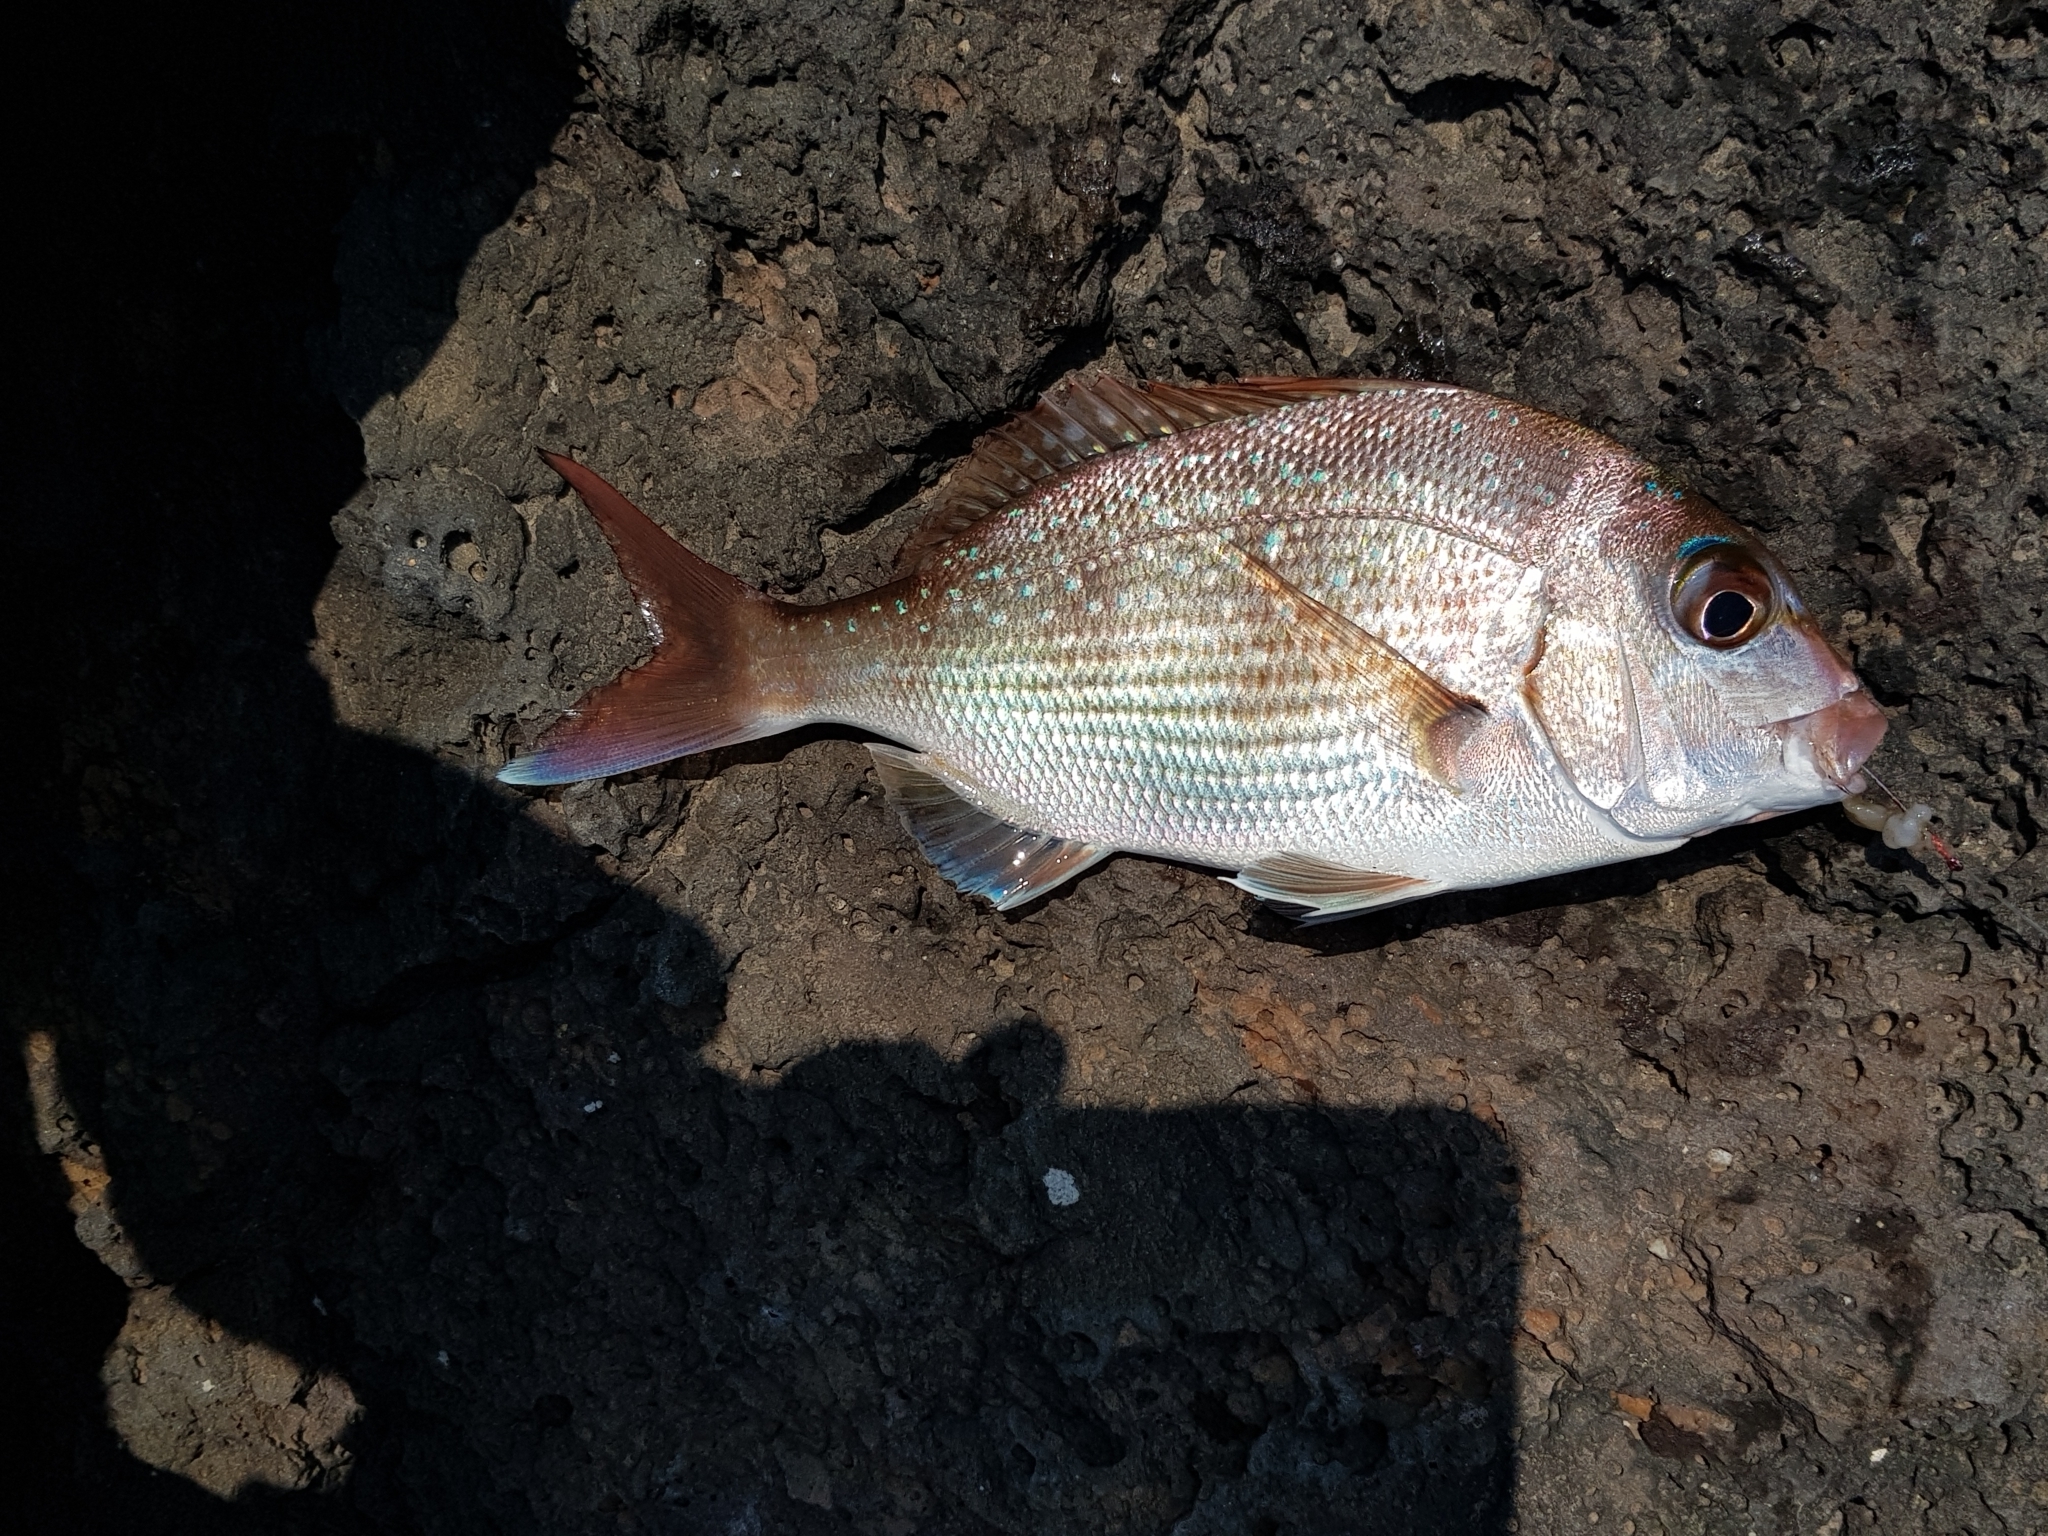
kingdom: Animalia
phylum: Chordata
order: Perciformes
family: Sparidae
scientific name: Sparidae
